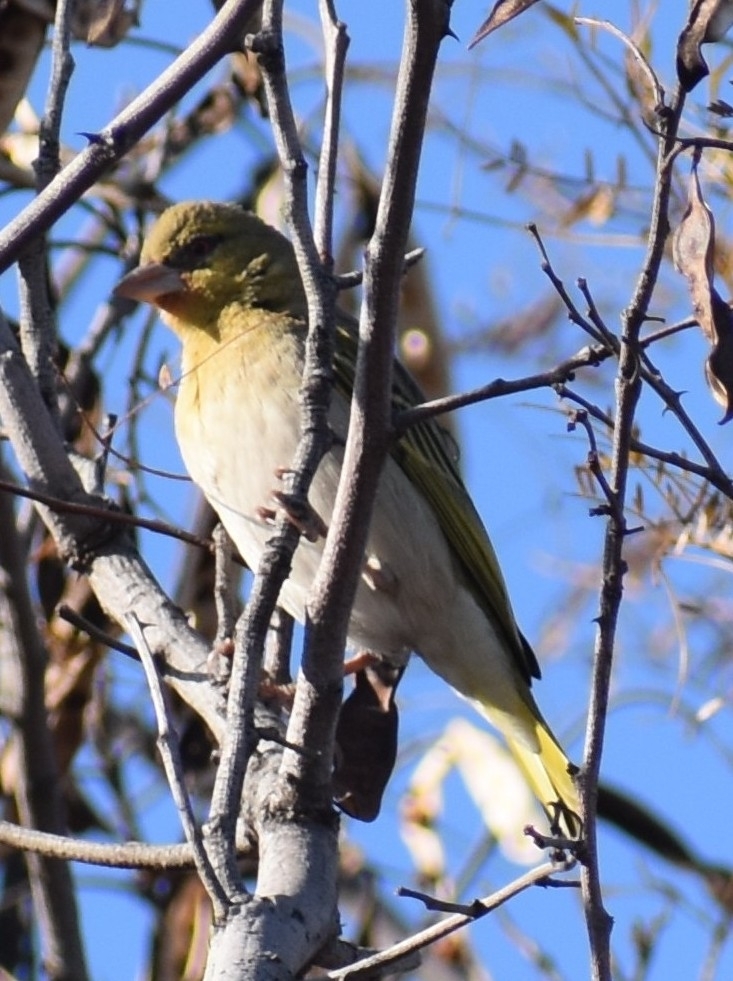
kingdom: Animalia
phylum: Chordata
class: Aves
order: Passeriformes
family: Ploceidae
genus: Ploceus
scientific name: Ploceus velatus
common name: Southern masked weaver
